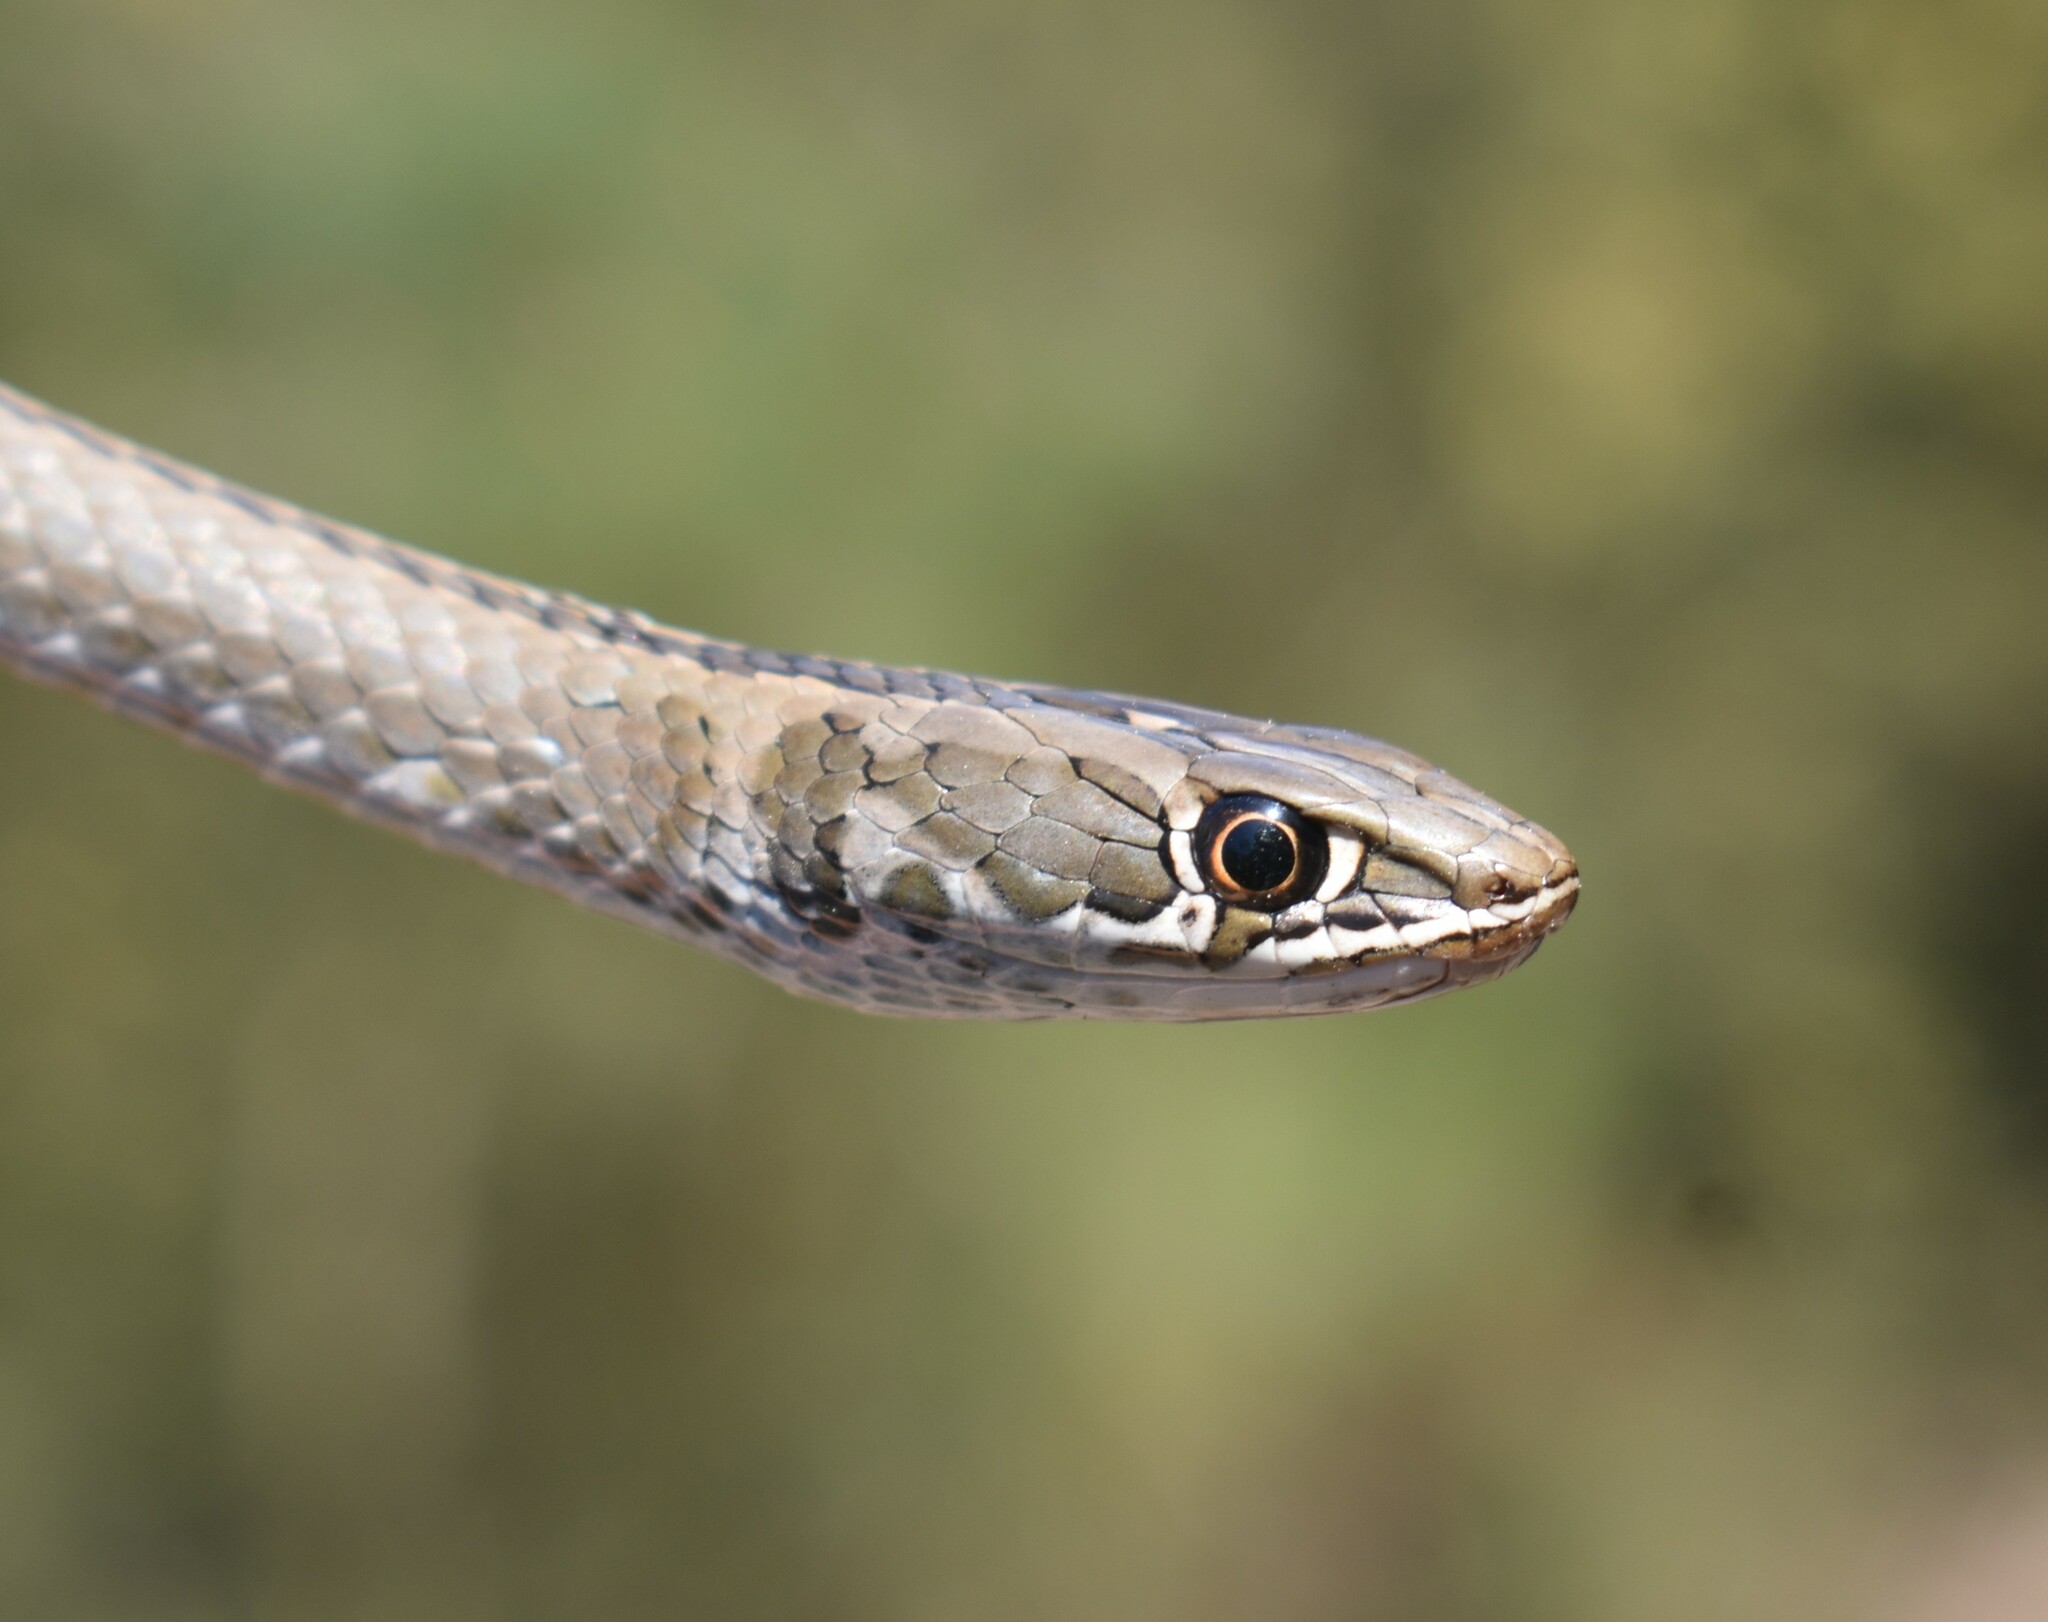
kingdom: Animalia
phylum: Chordata
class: Squamata
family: Psammophiidae
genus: Psammophis
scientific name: Psammophis crucifer
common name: Cross-marked grass snake
